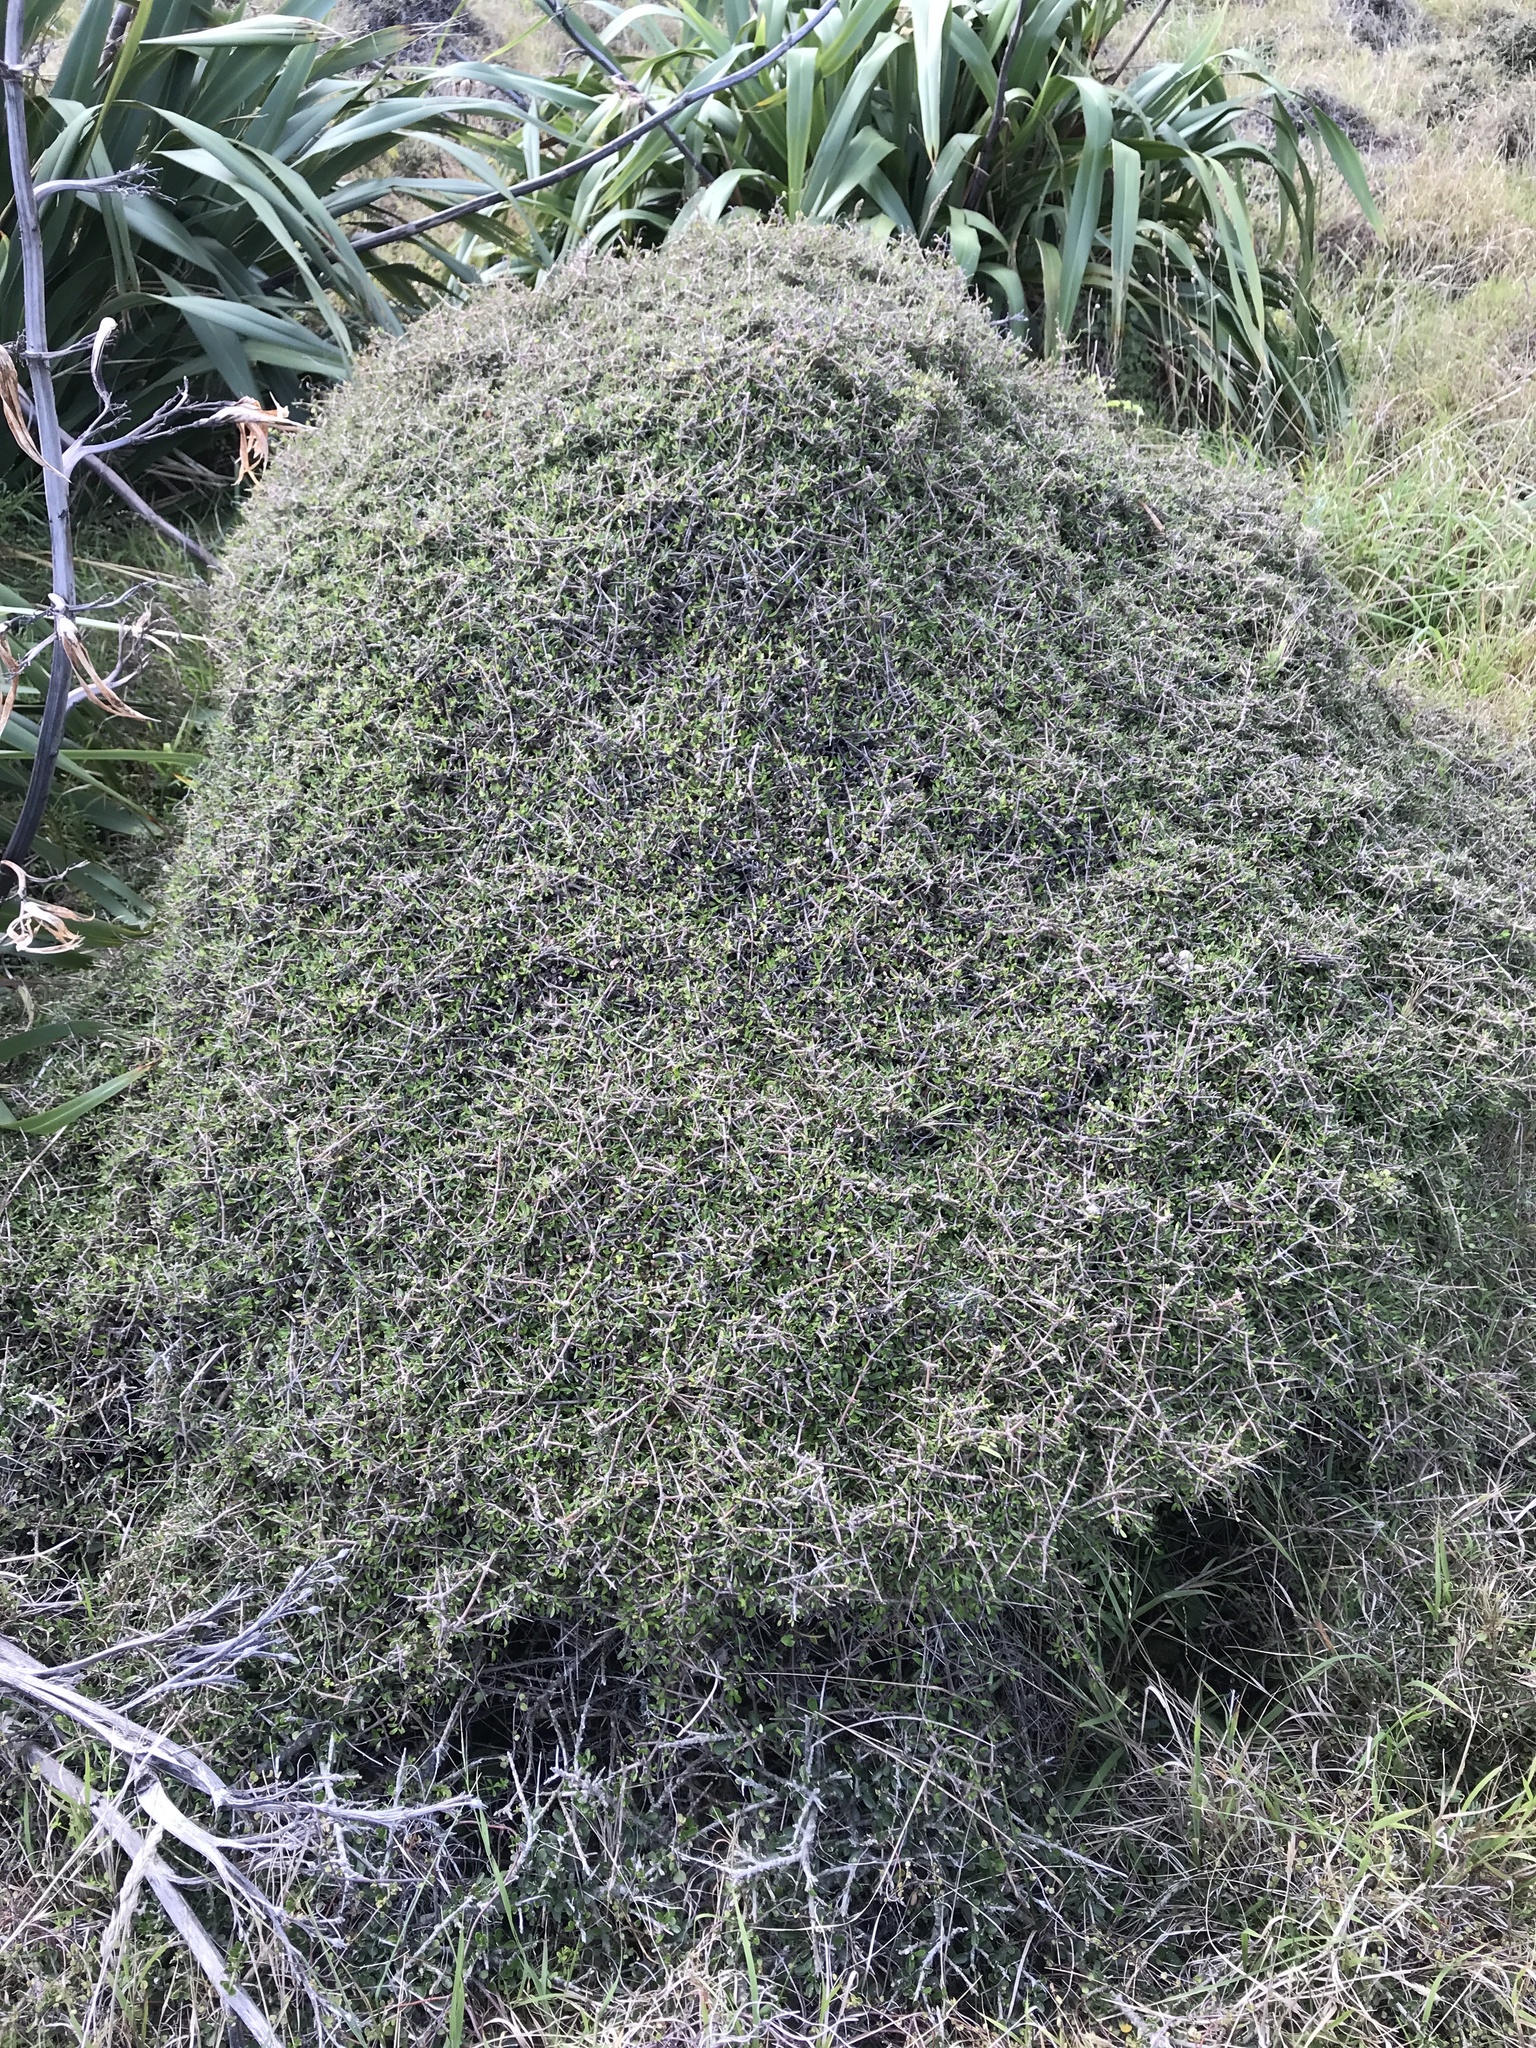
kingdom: Plantae
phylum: Tracheophyta
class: Magnoliopsida
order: Gentianales
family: Rubiaceae
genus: Coprosma
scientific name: Coprosma propinqua
